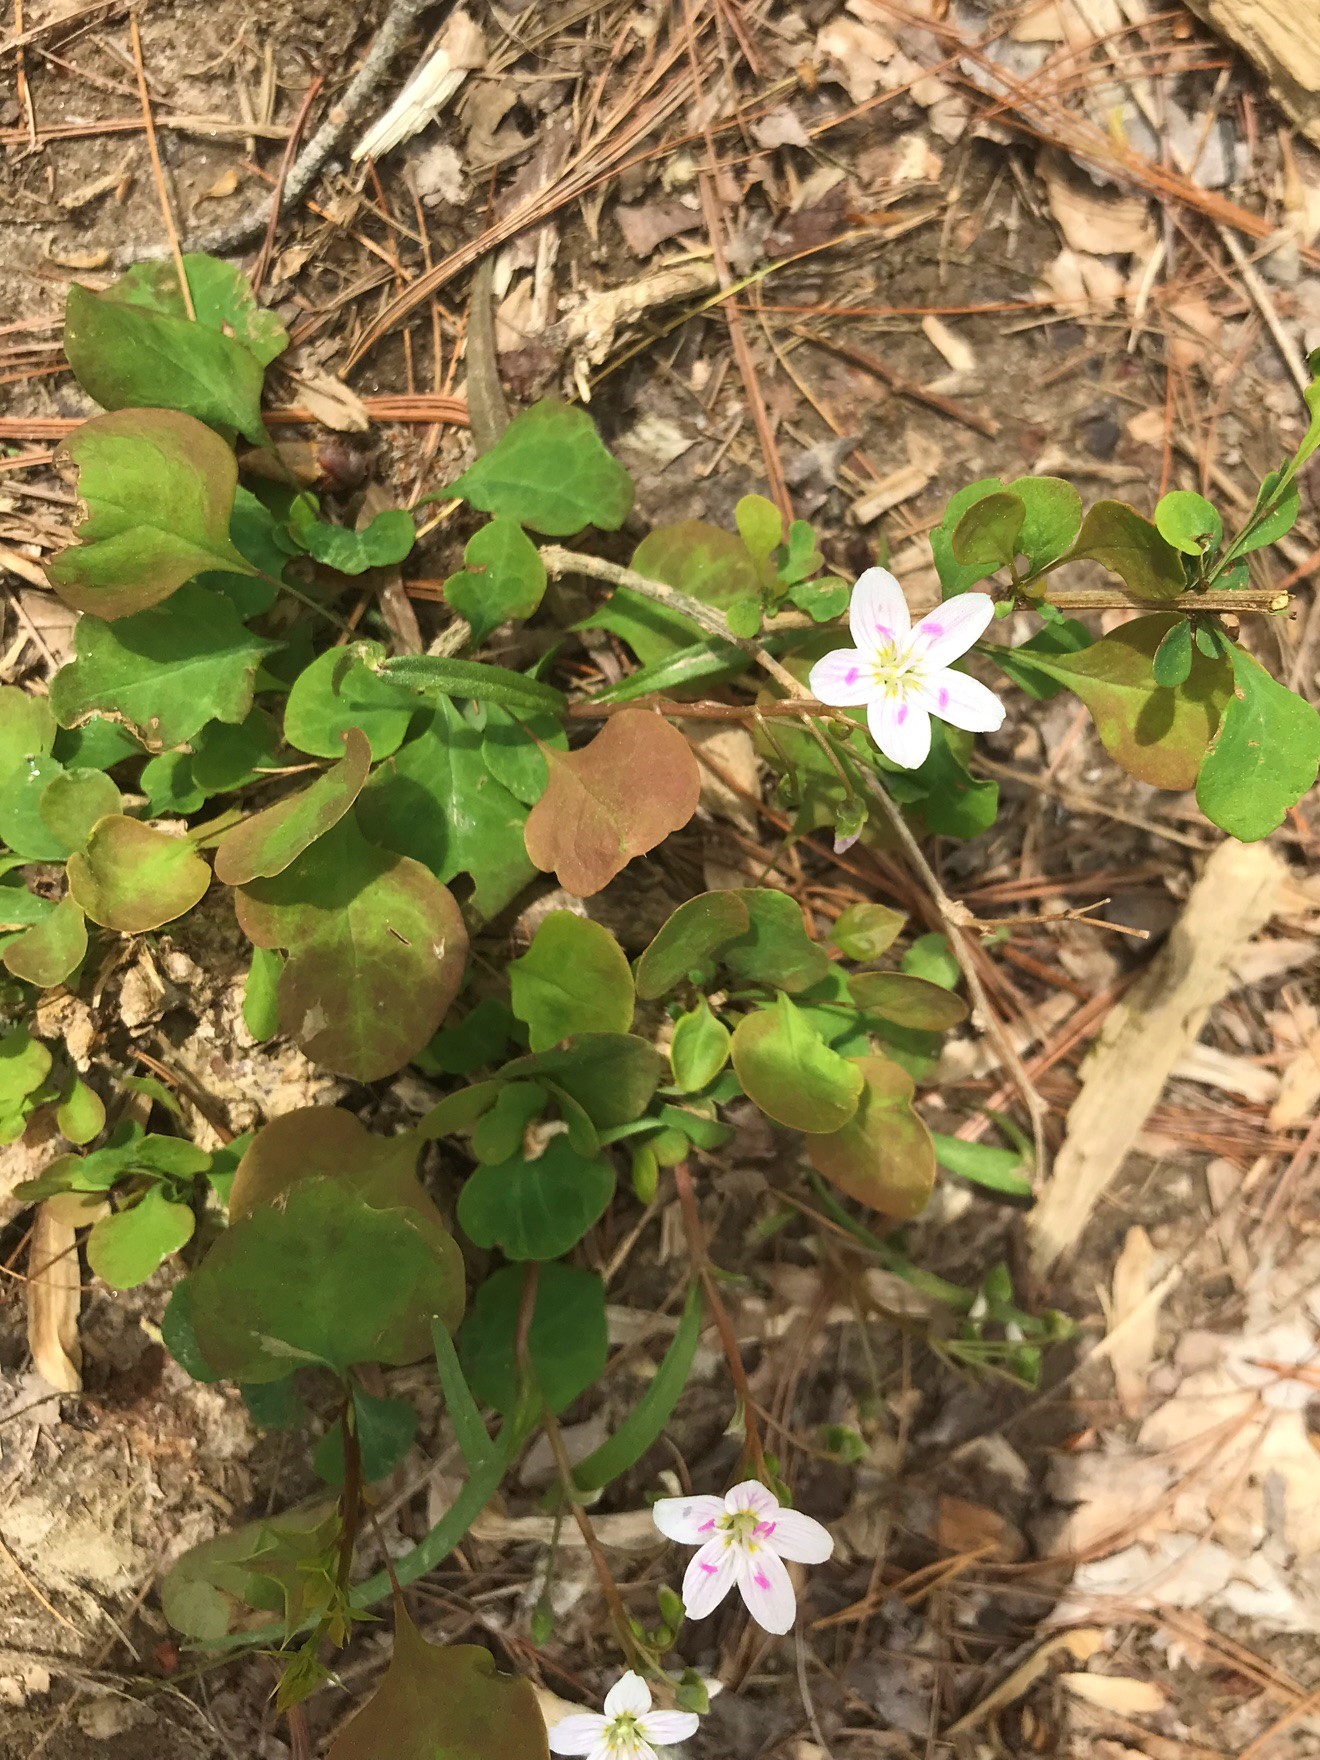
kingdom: Plantae
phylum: Tracheophyta
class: Magnoliopsida
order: Caryophyllales
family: Montiaceae
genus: Claytonia
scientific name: Claytonia virginica
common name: Virginia springbeauty
